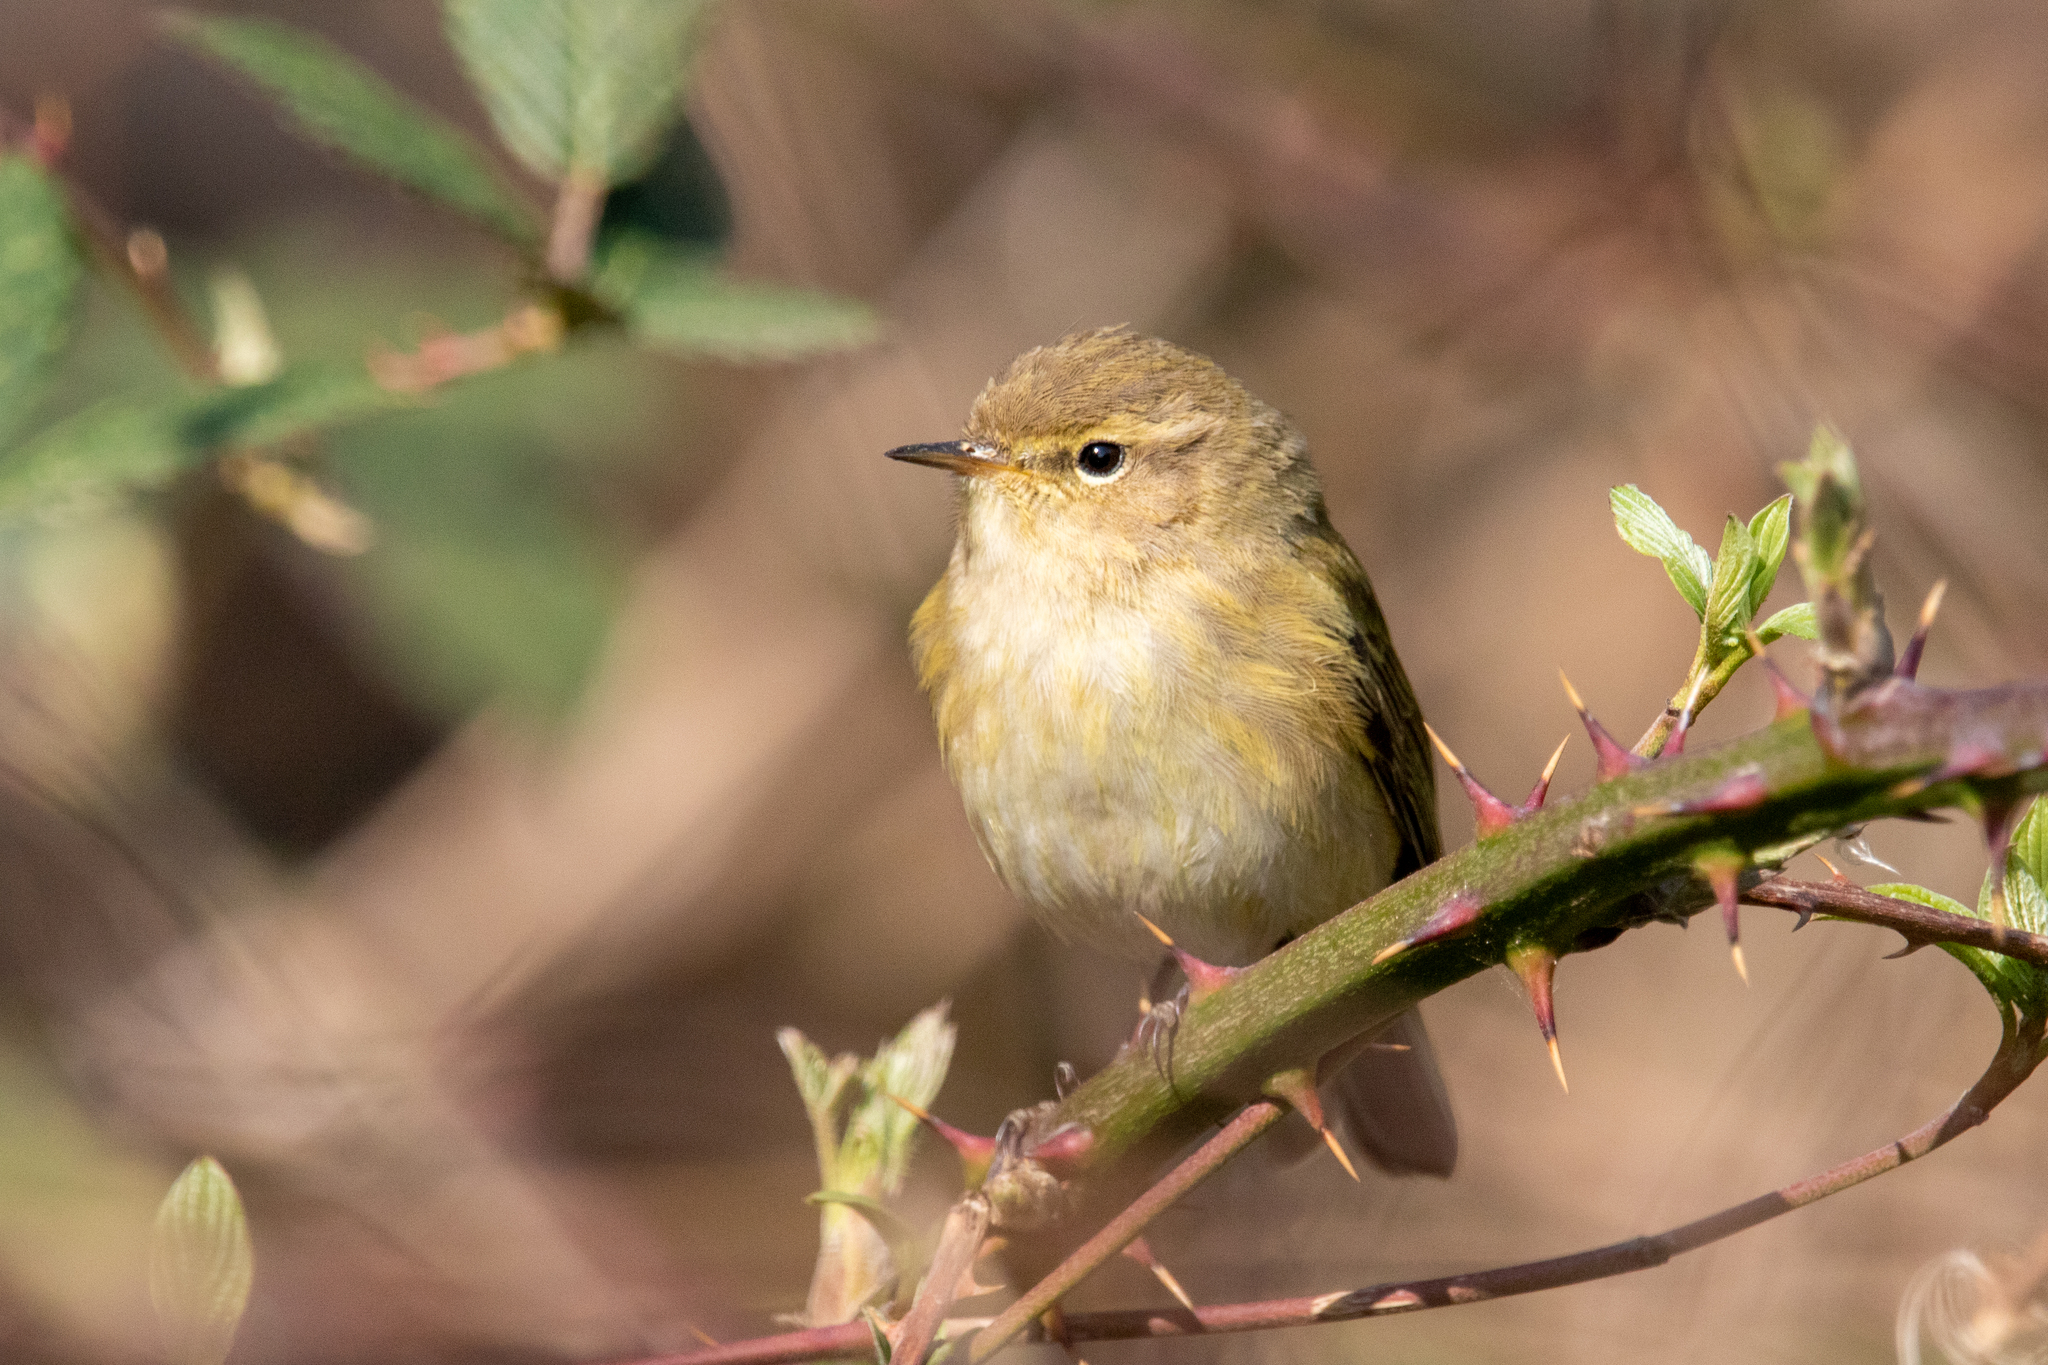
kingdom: Animalia
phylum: Chordata
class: Aves
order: Passeriformes
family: Phylloscopidae
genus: Phylloscopus
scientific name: Phylloscopus collybita
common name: Common chiffchaff
